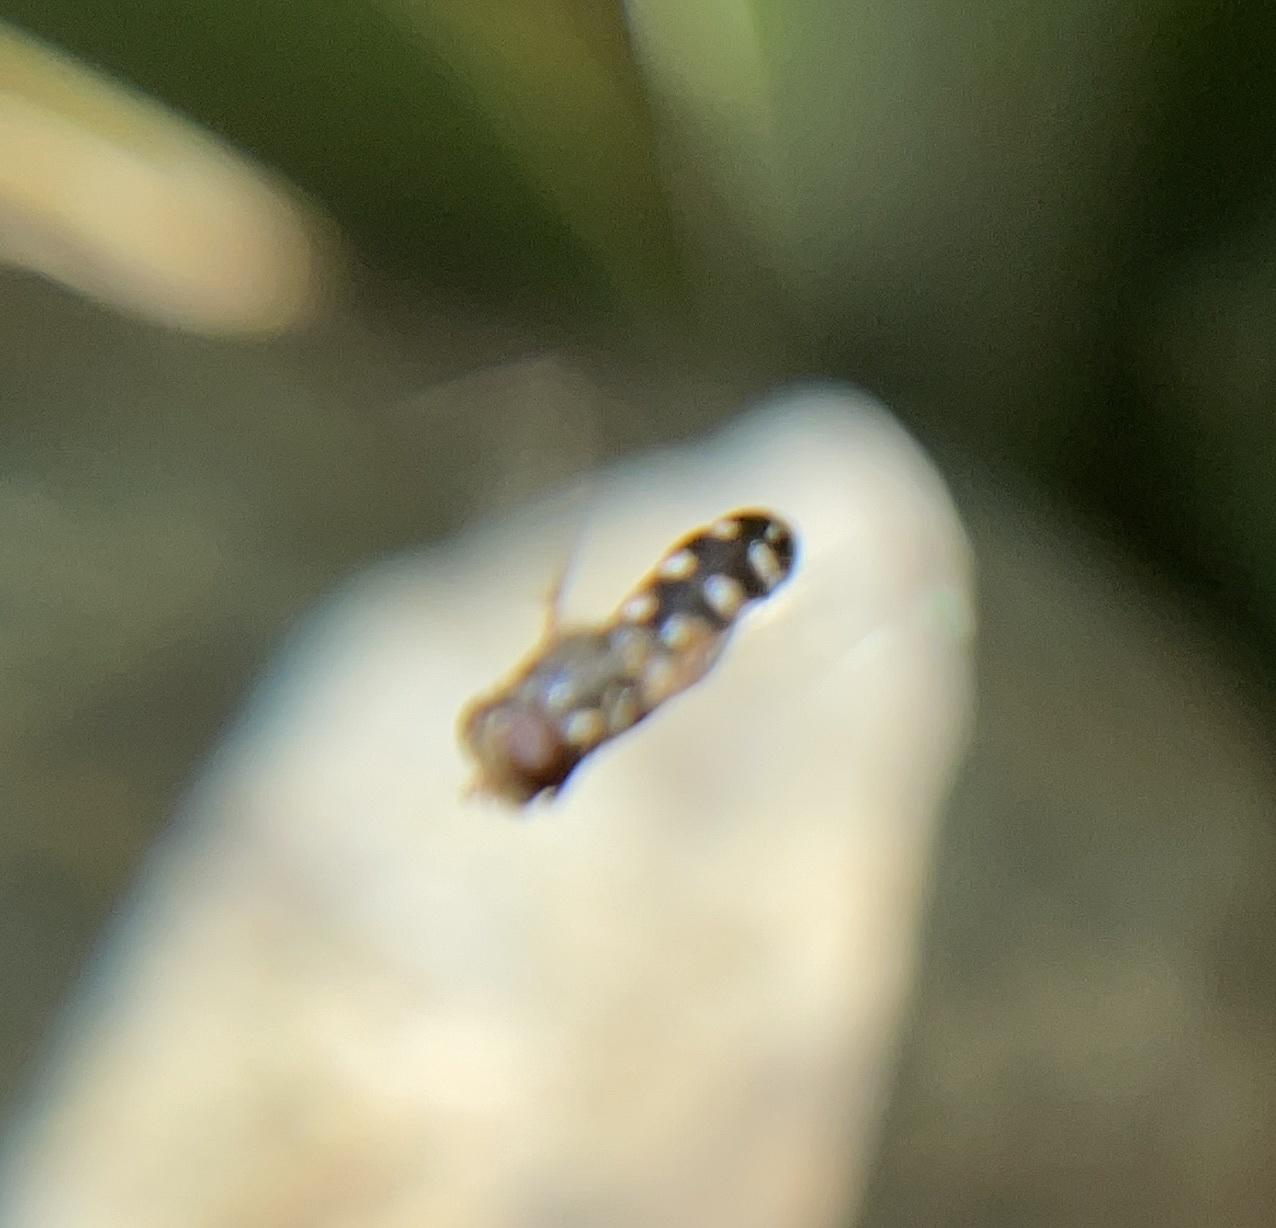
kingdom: Animalia
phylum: Arthropoda
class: Insecta
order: Diptera
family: Syrphidae
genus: Syritta
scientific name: Syritta pipiens
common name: Hover fly
